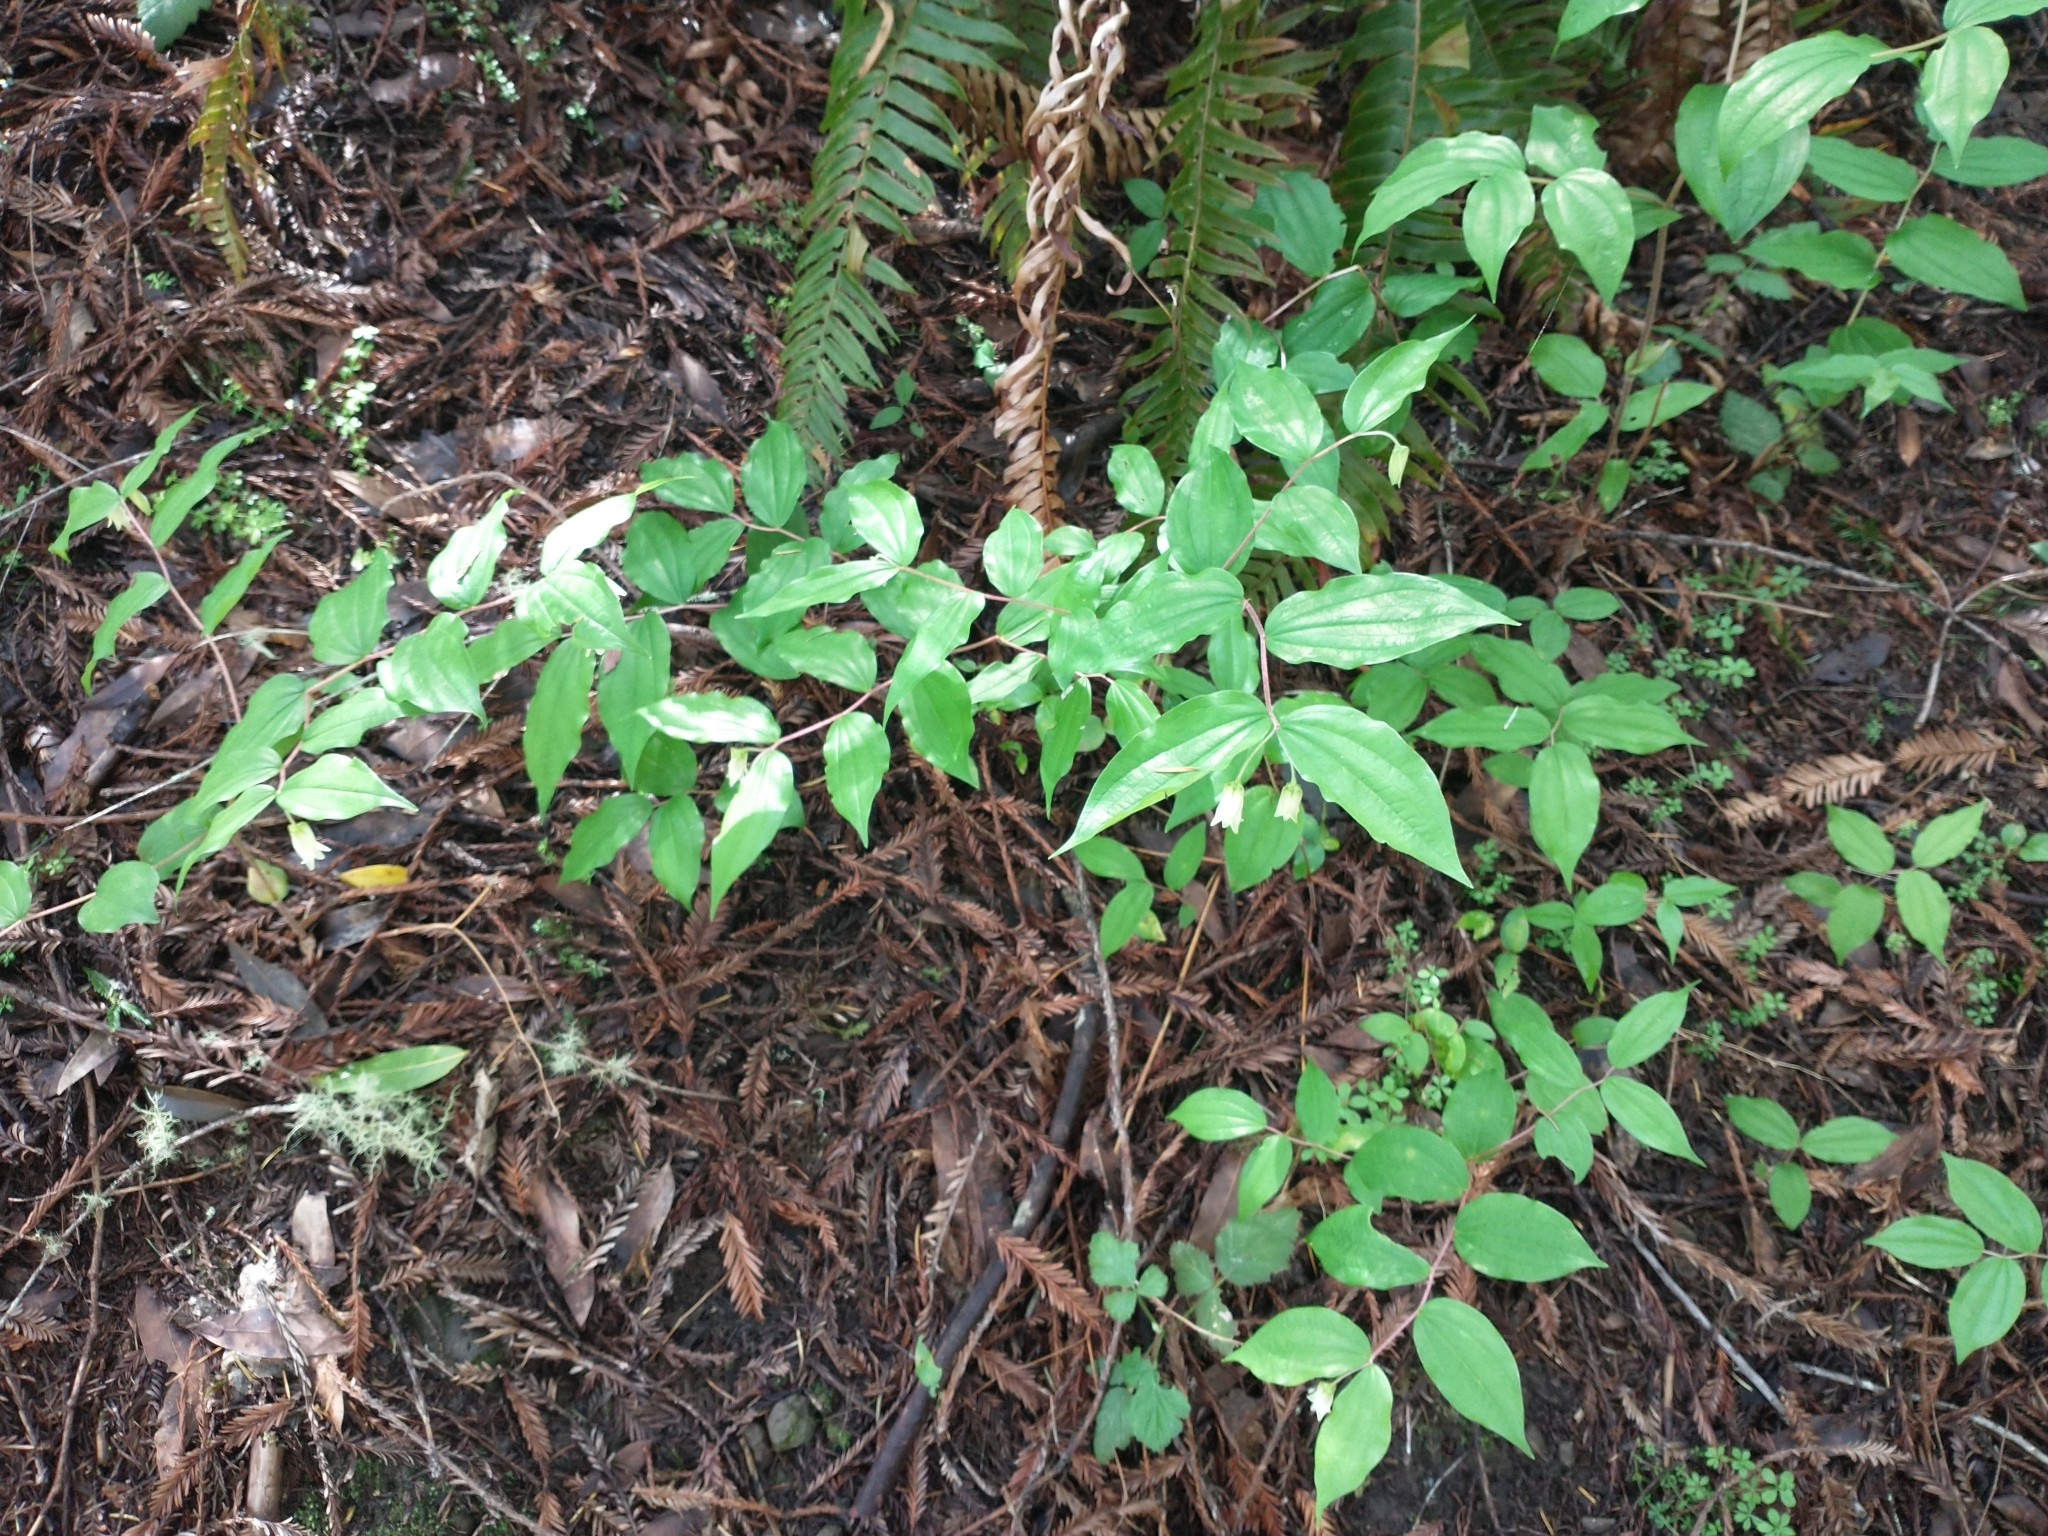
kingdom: Plantae
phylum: Tracheophyta
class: Liliopsida
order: Liliales
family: Liliaceae
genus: Prosartes
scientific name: Prosartes smithii
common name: Fairy-lantern
